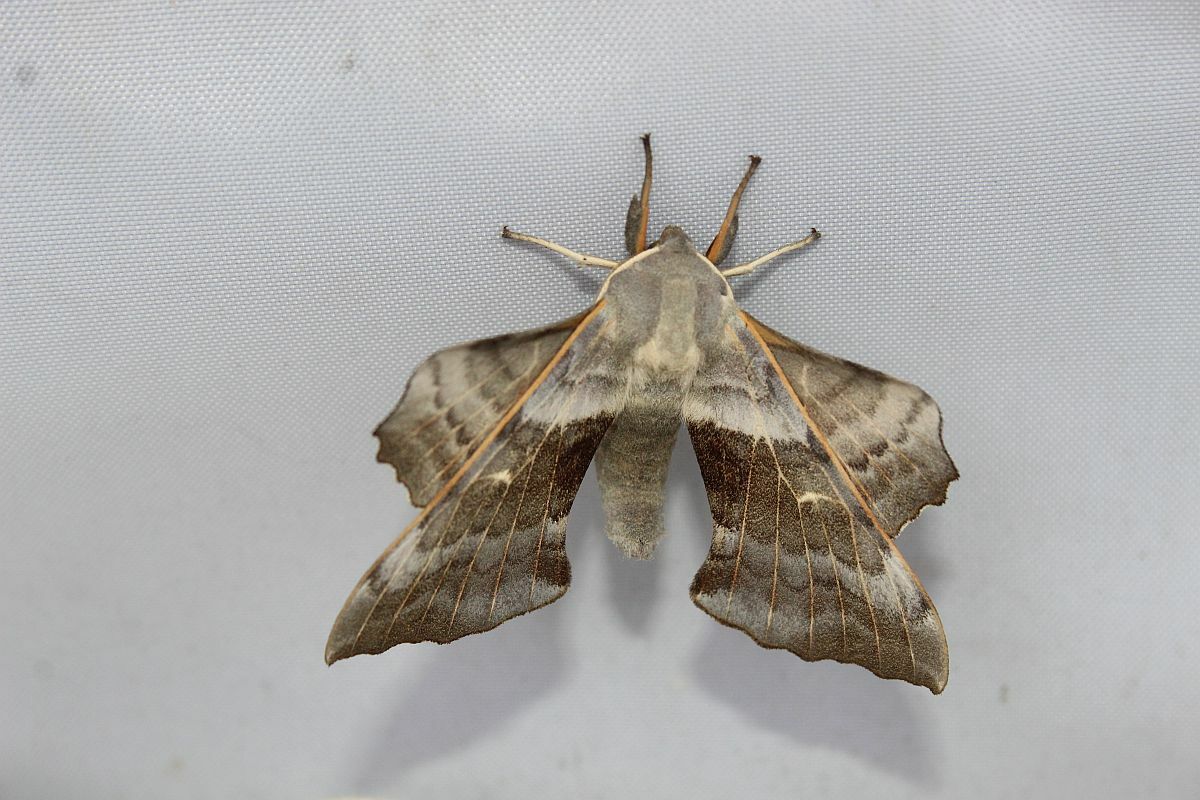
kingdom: Animalia
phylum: Arthropoda
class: Insecta
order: Lepidoptera
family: Sphingidae
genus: Laothoe
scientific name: Laothoe populi
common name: Poplar hawk-moth
